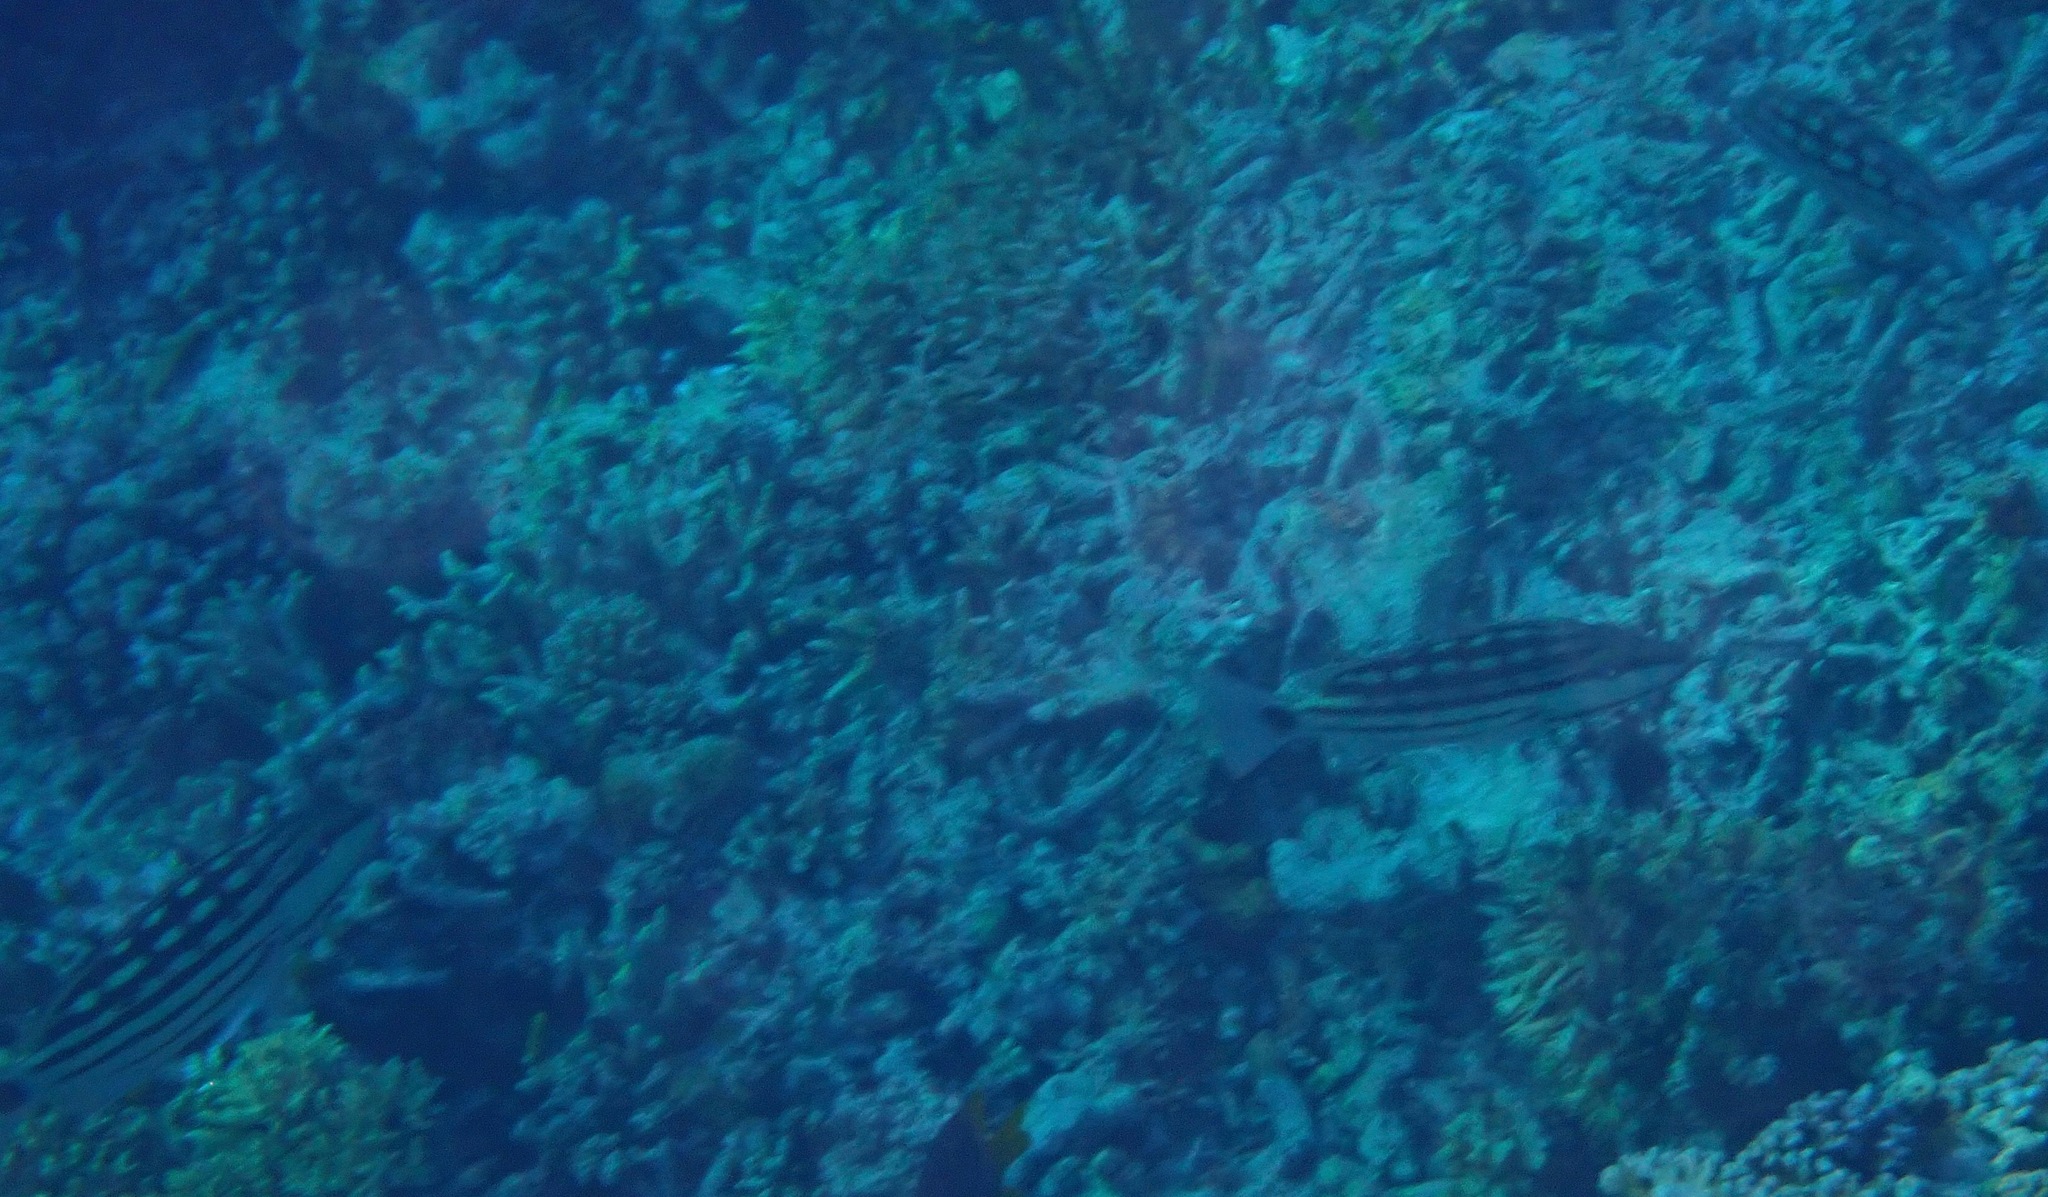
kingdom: Animalia
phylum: Chordata
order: Perciformes
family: Lutjanidae
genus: Lutjanus
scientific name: Lutjanus decussatus
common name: Checkered snapper
